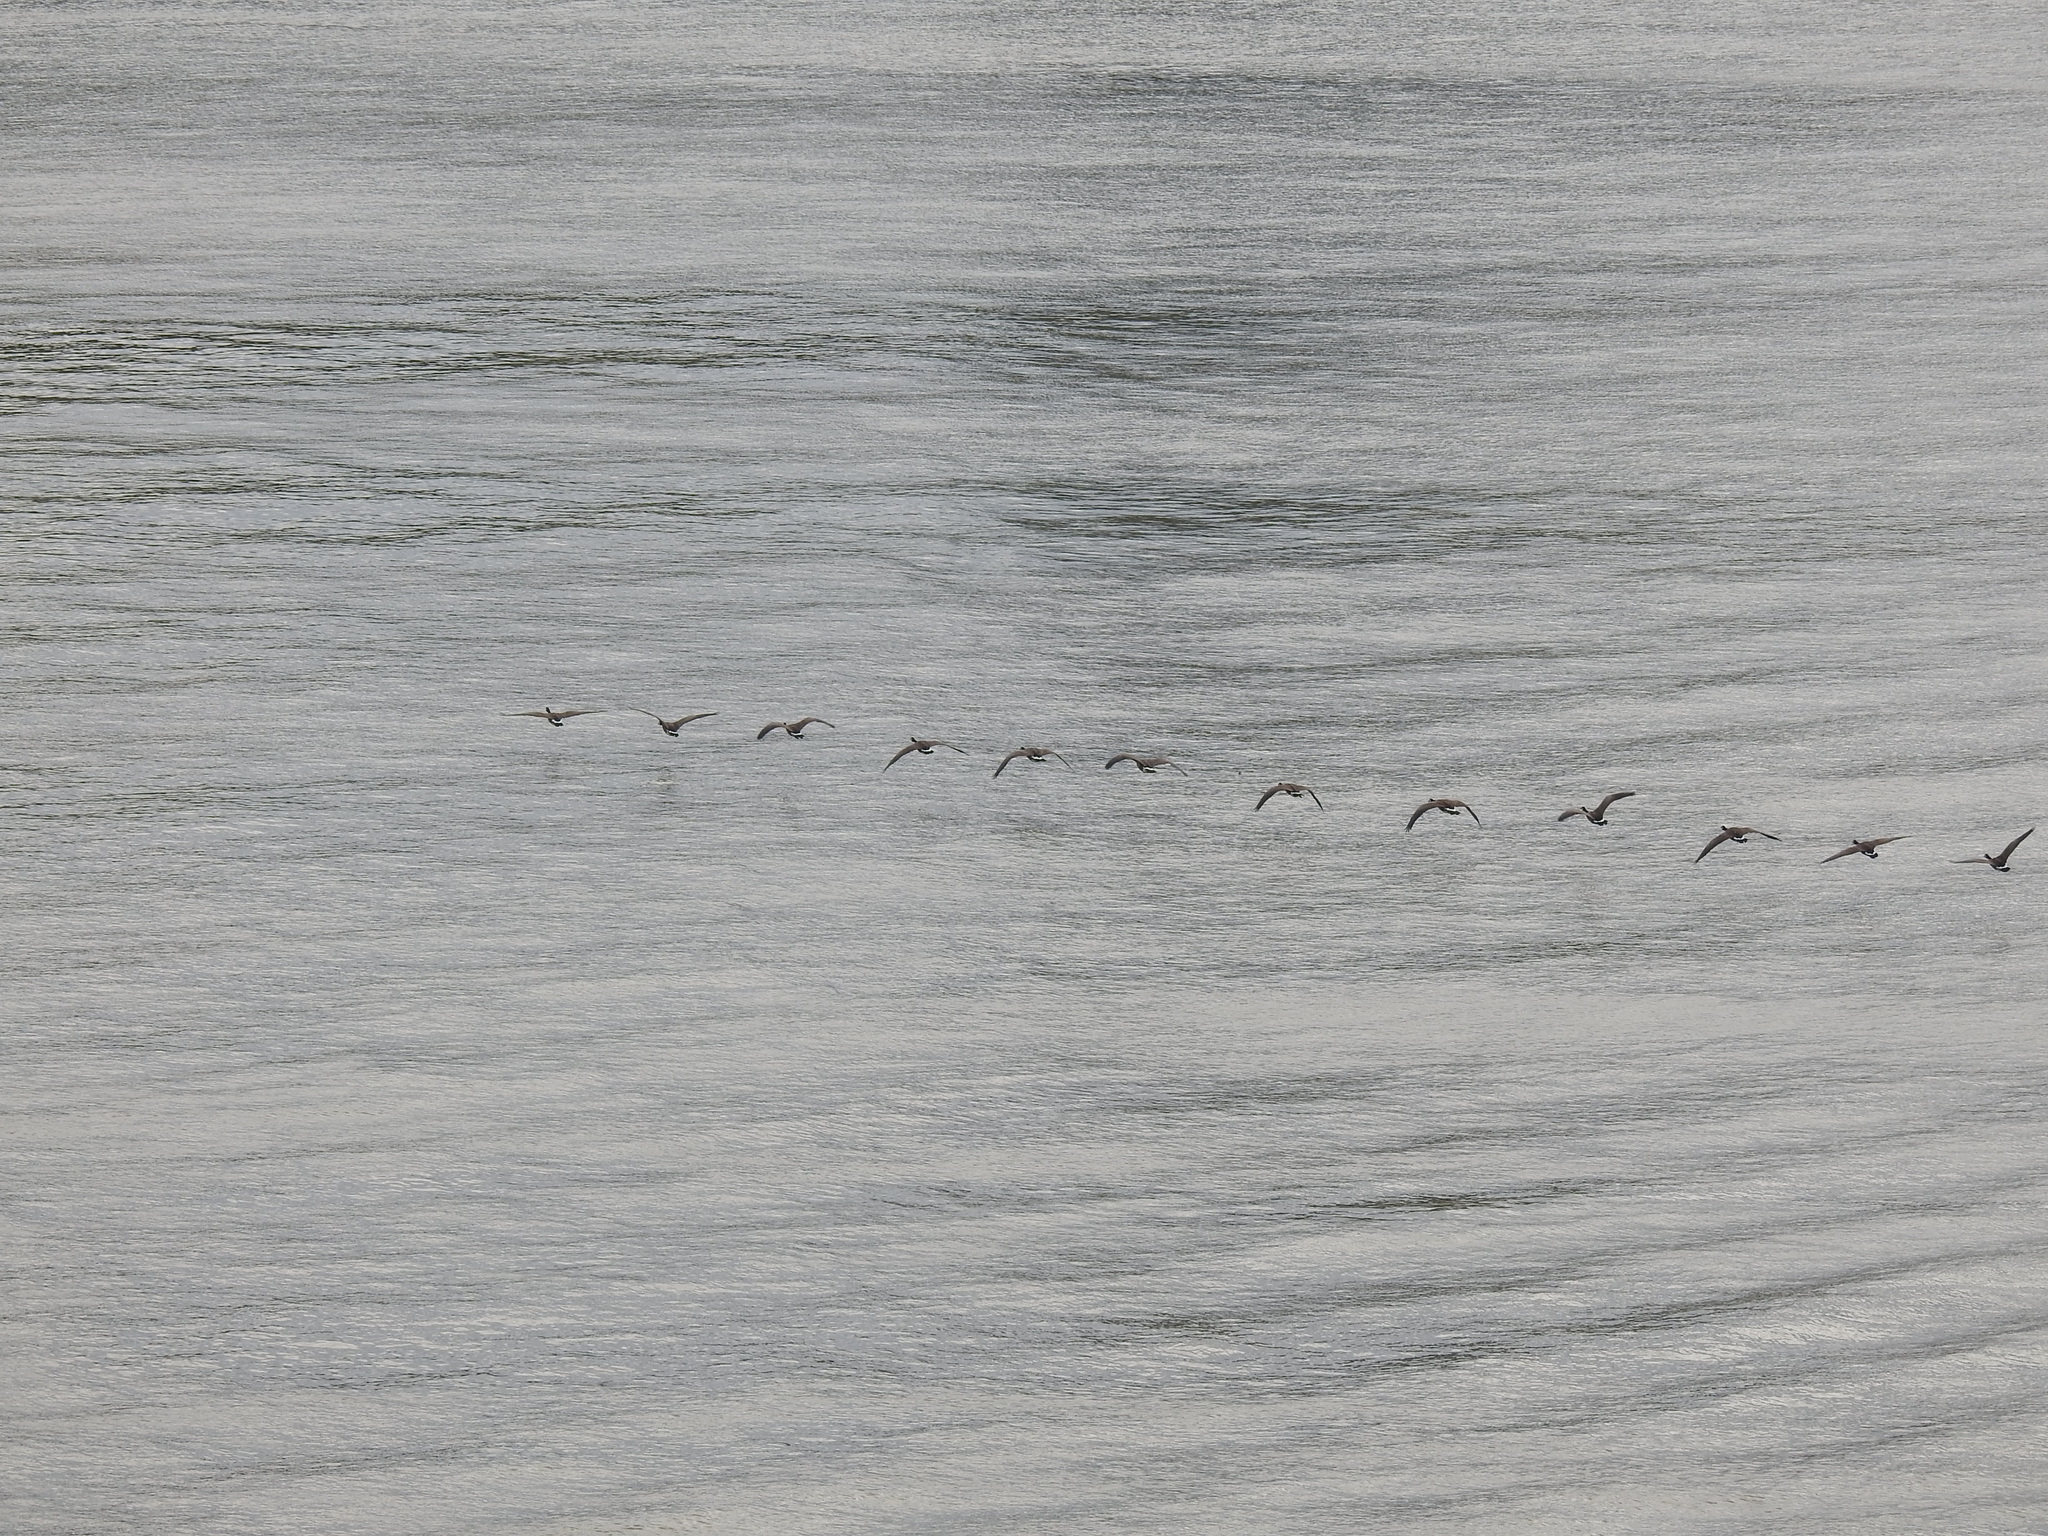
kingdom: Animalia
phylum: Chordata
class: Aves
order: Anseriformes
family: Anatidae
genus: Branta
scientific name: Branta canadensis
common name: Canada goose
